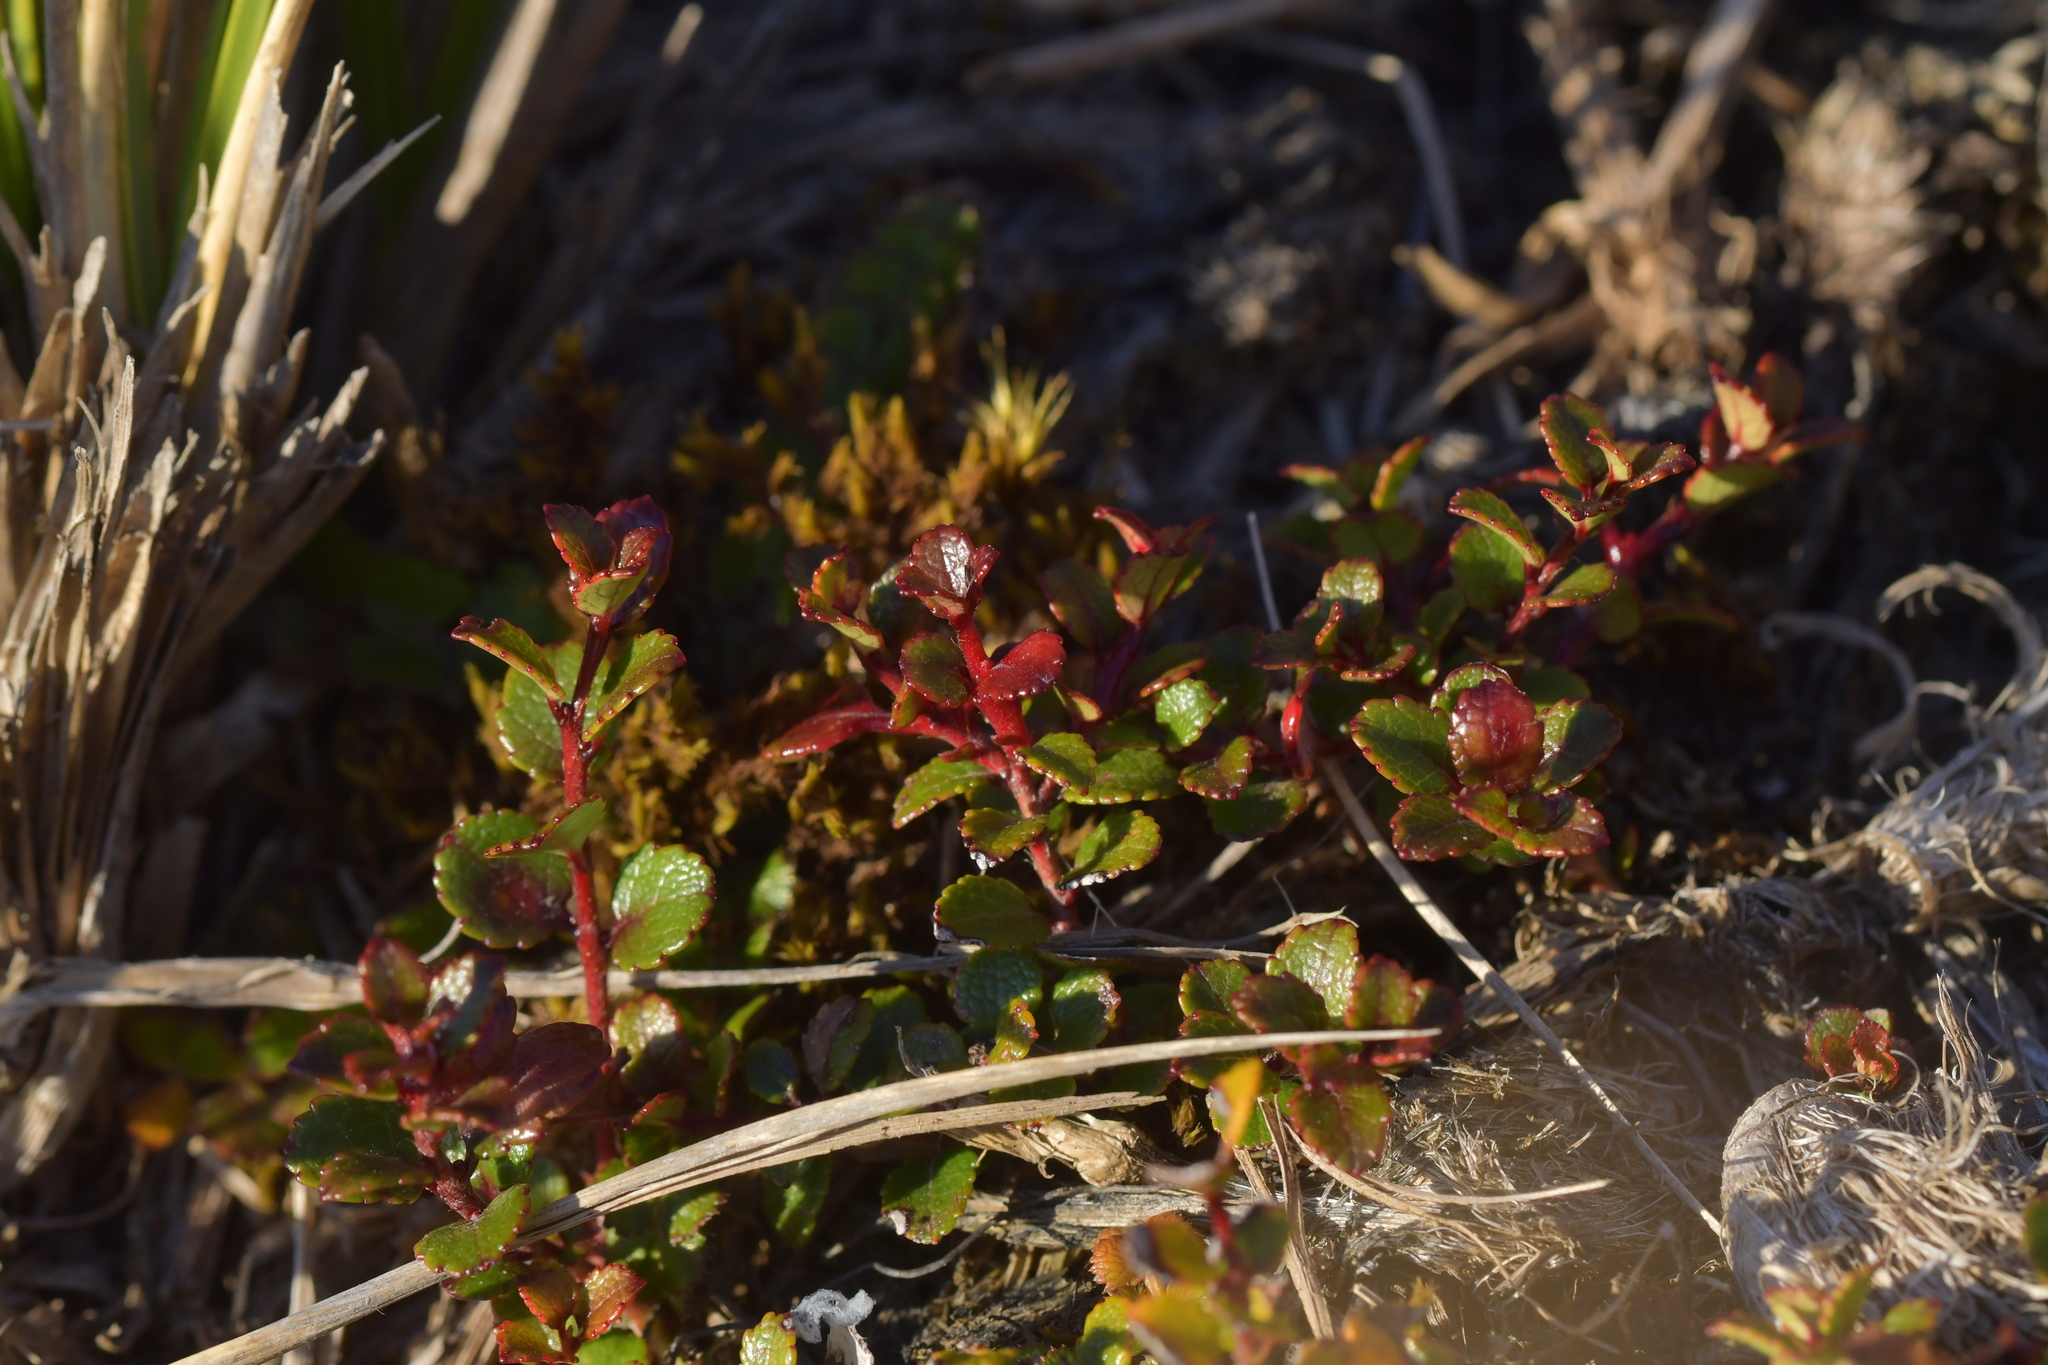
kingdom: Plantae
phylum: Tracheophyta
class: Magnoliopsida
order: Ericales
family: Ericaceae
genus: Gaultheria
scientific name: Gaultheria depressa
